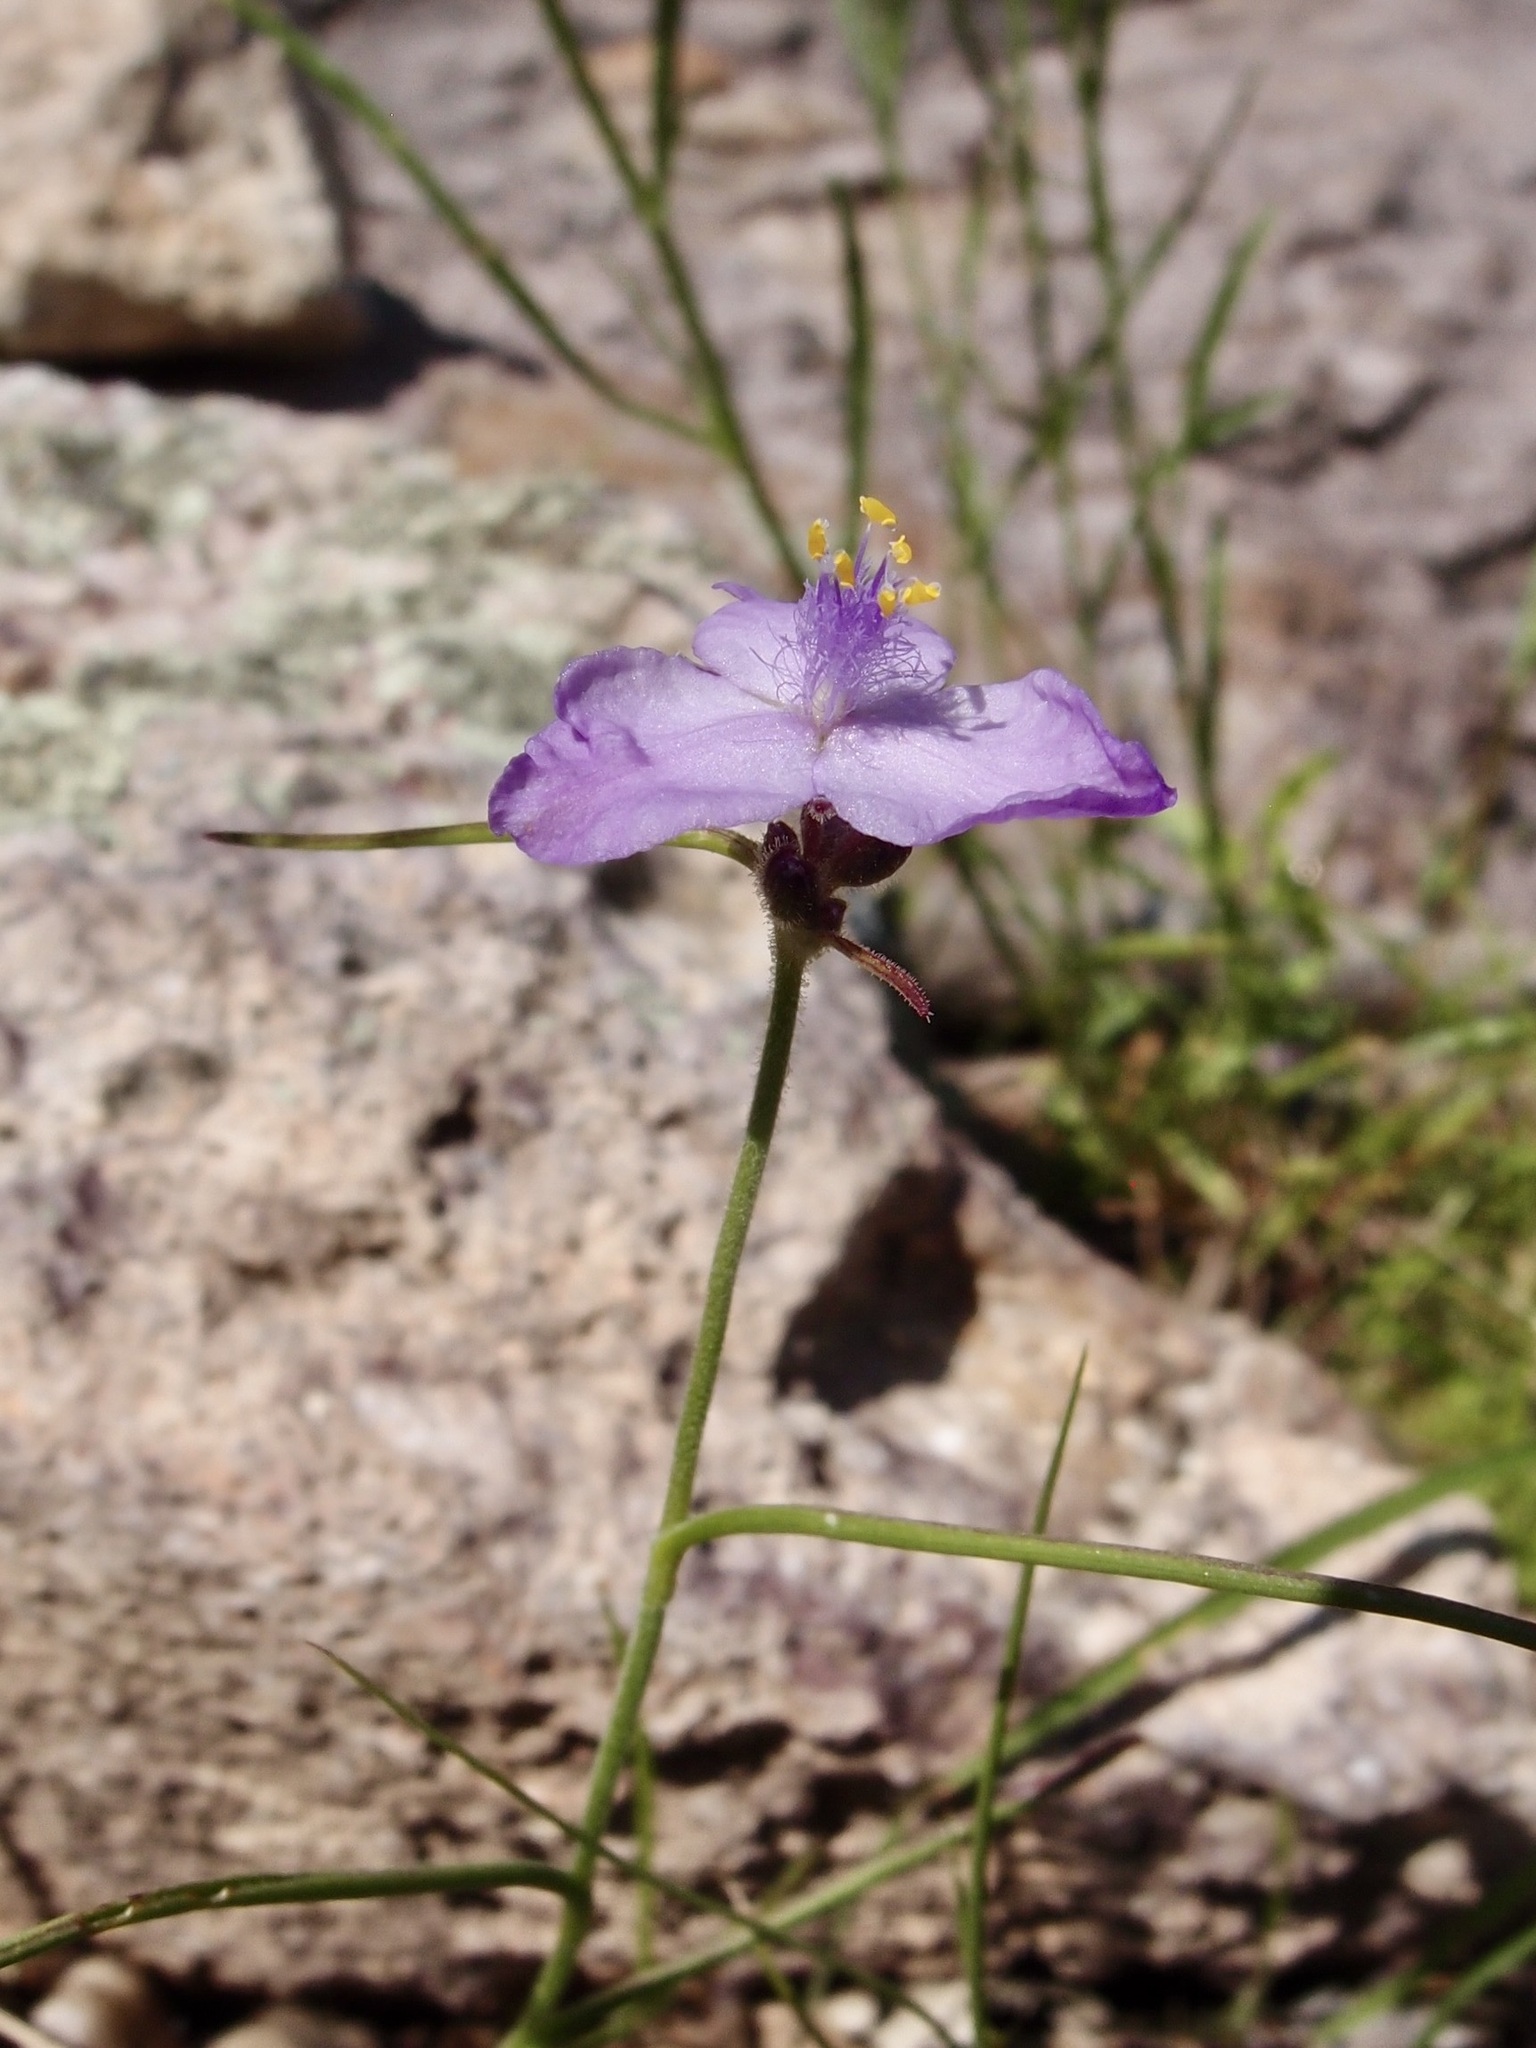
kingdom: Plantae
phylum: Tracheophyta
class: Liliopsida
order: Commelinales
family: Commelinaceae
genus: Tradescantia
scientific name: Tradescantia pinetorum
